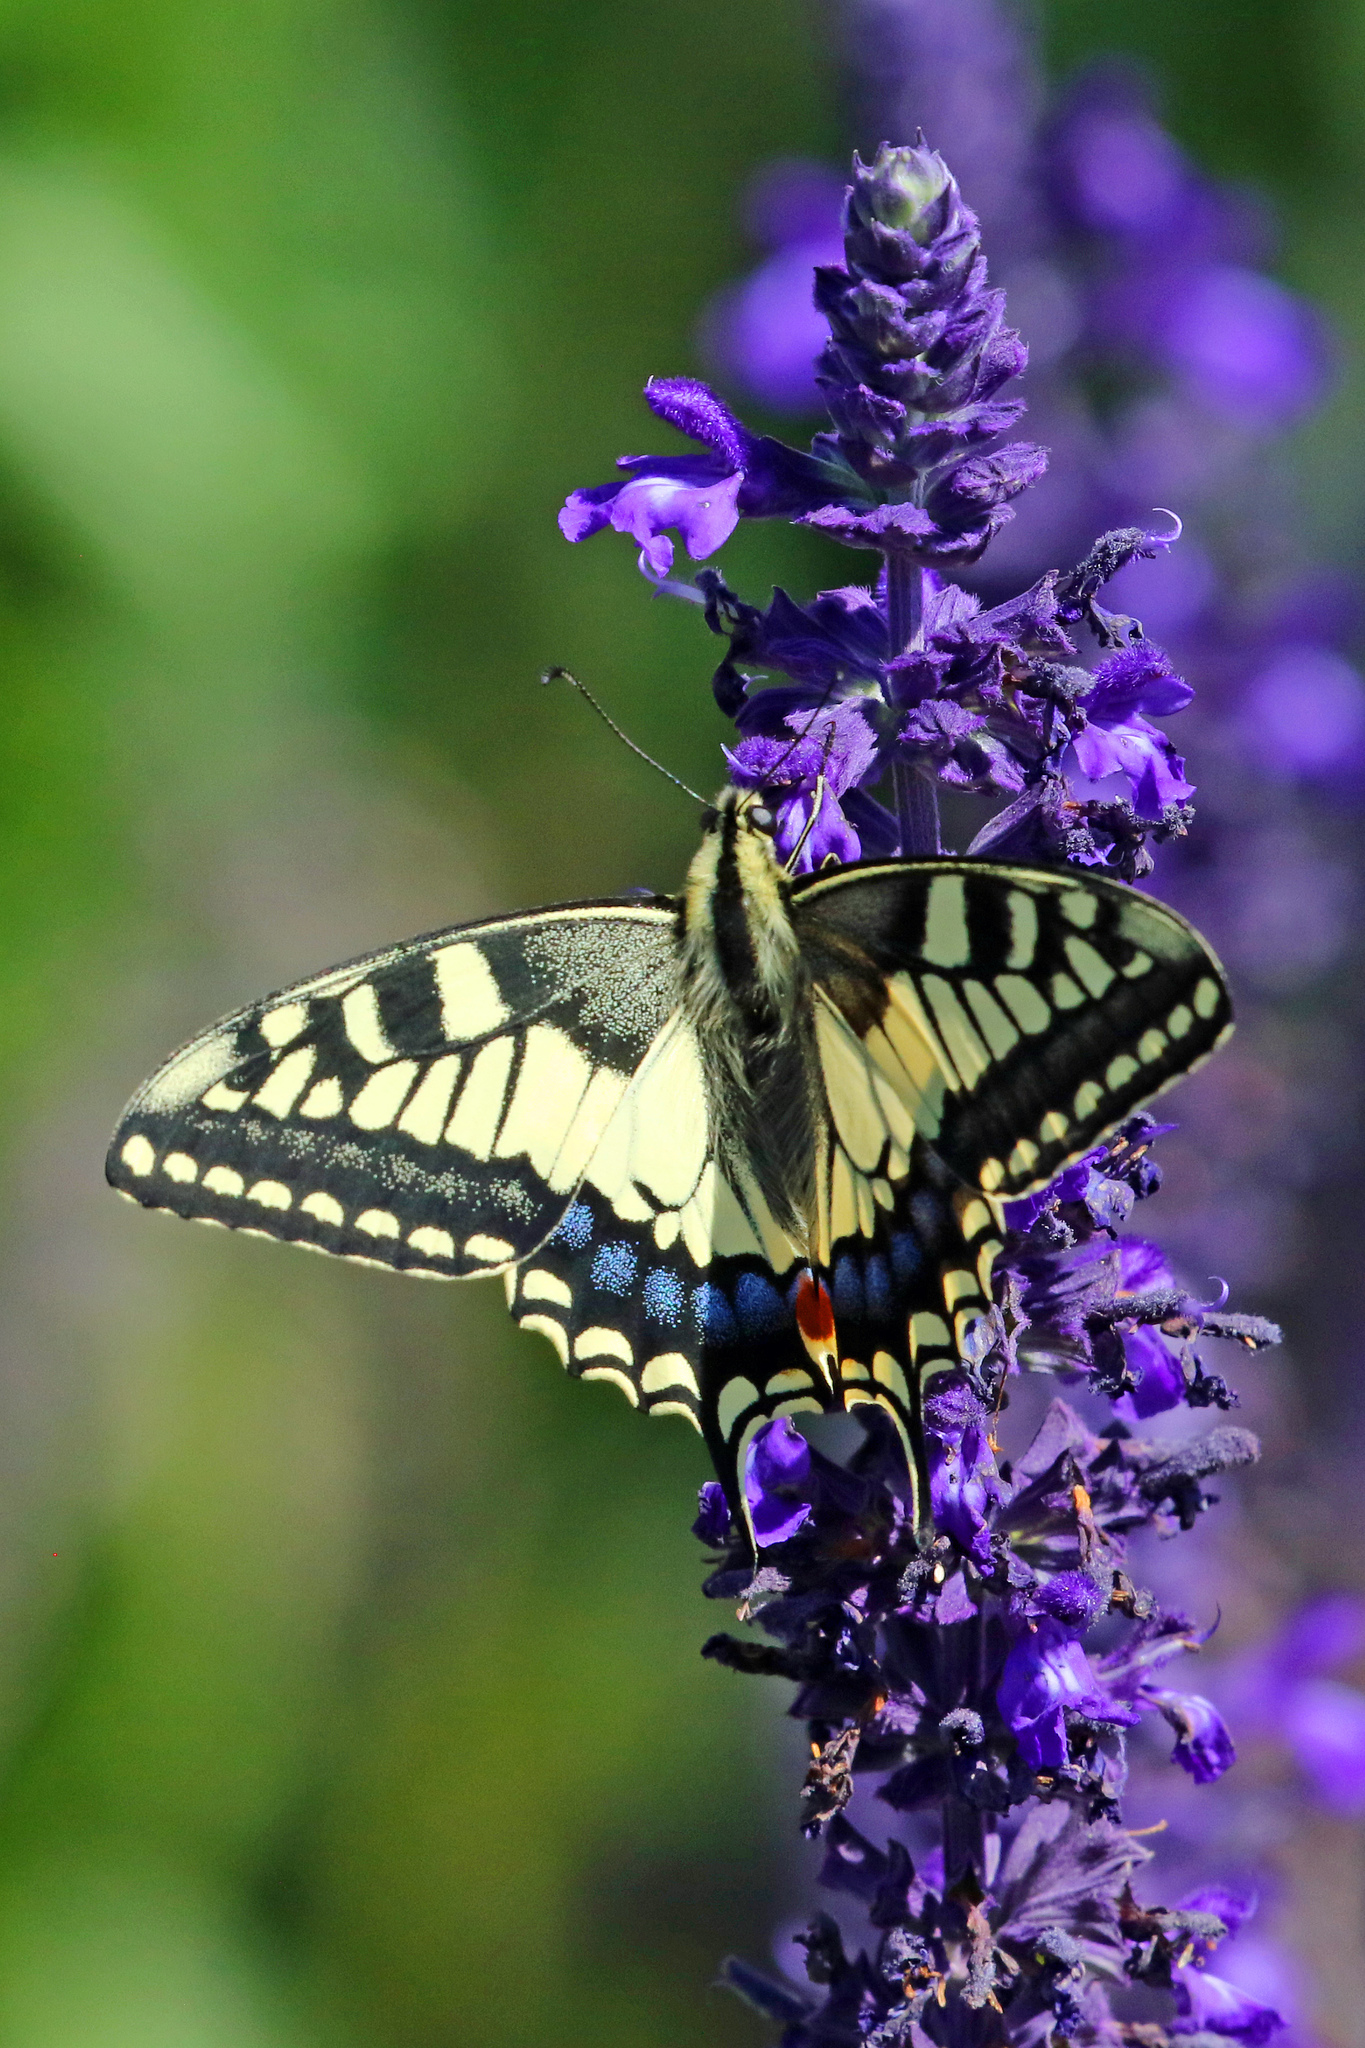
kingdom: Animalia
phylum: Arthropoda
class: Insecta
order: Lepidoptera
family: Papilionidae
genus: Papilio
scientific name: Papilio machaon
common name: Swallowtail
